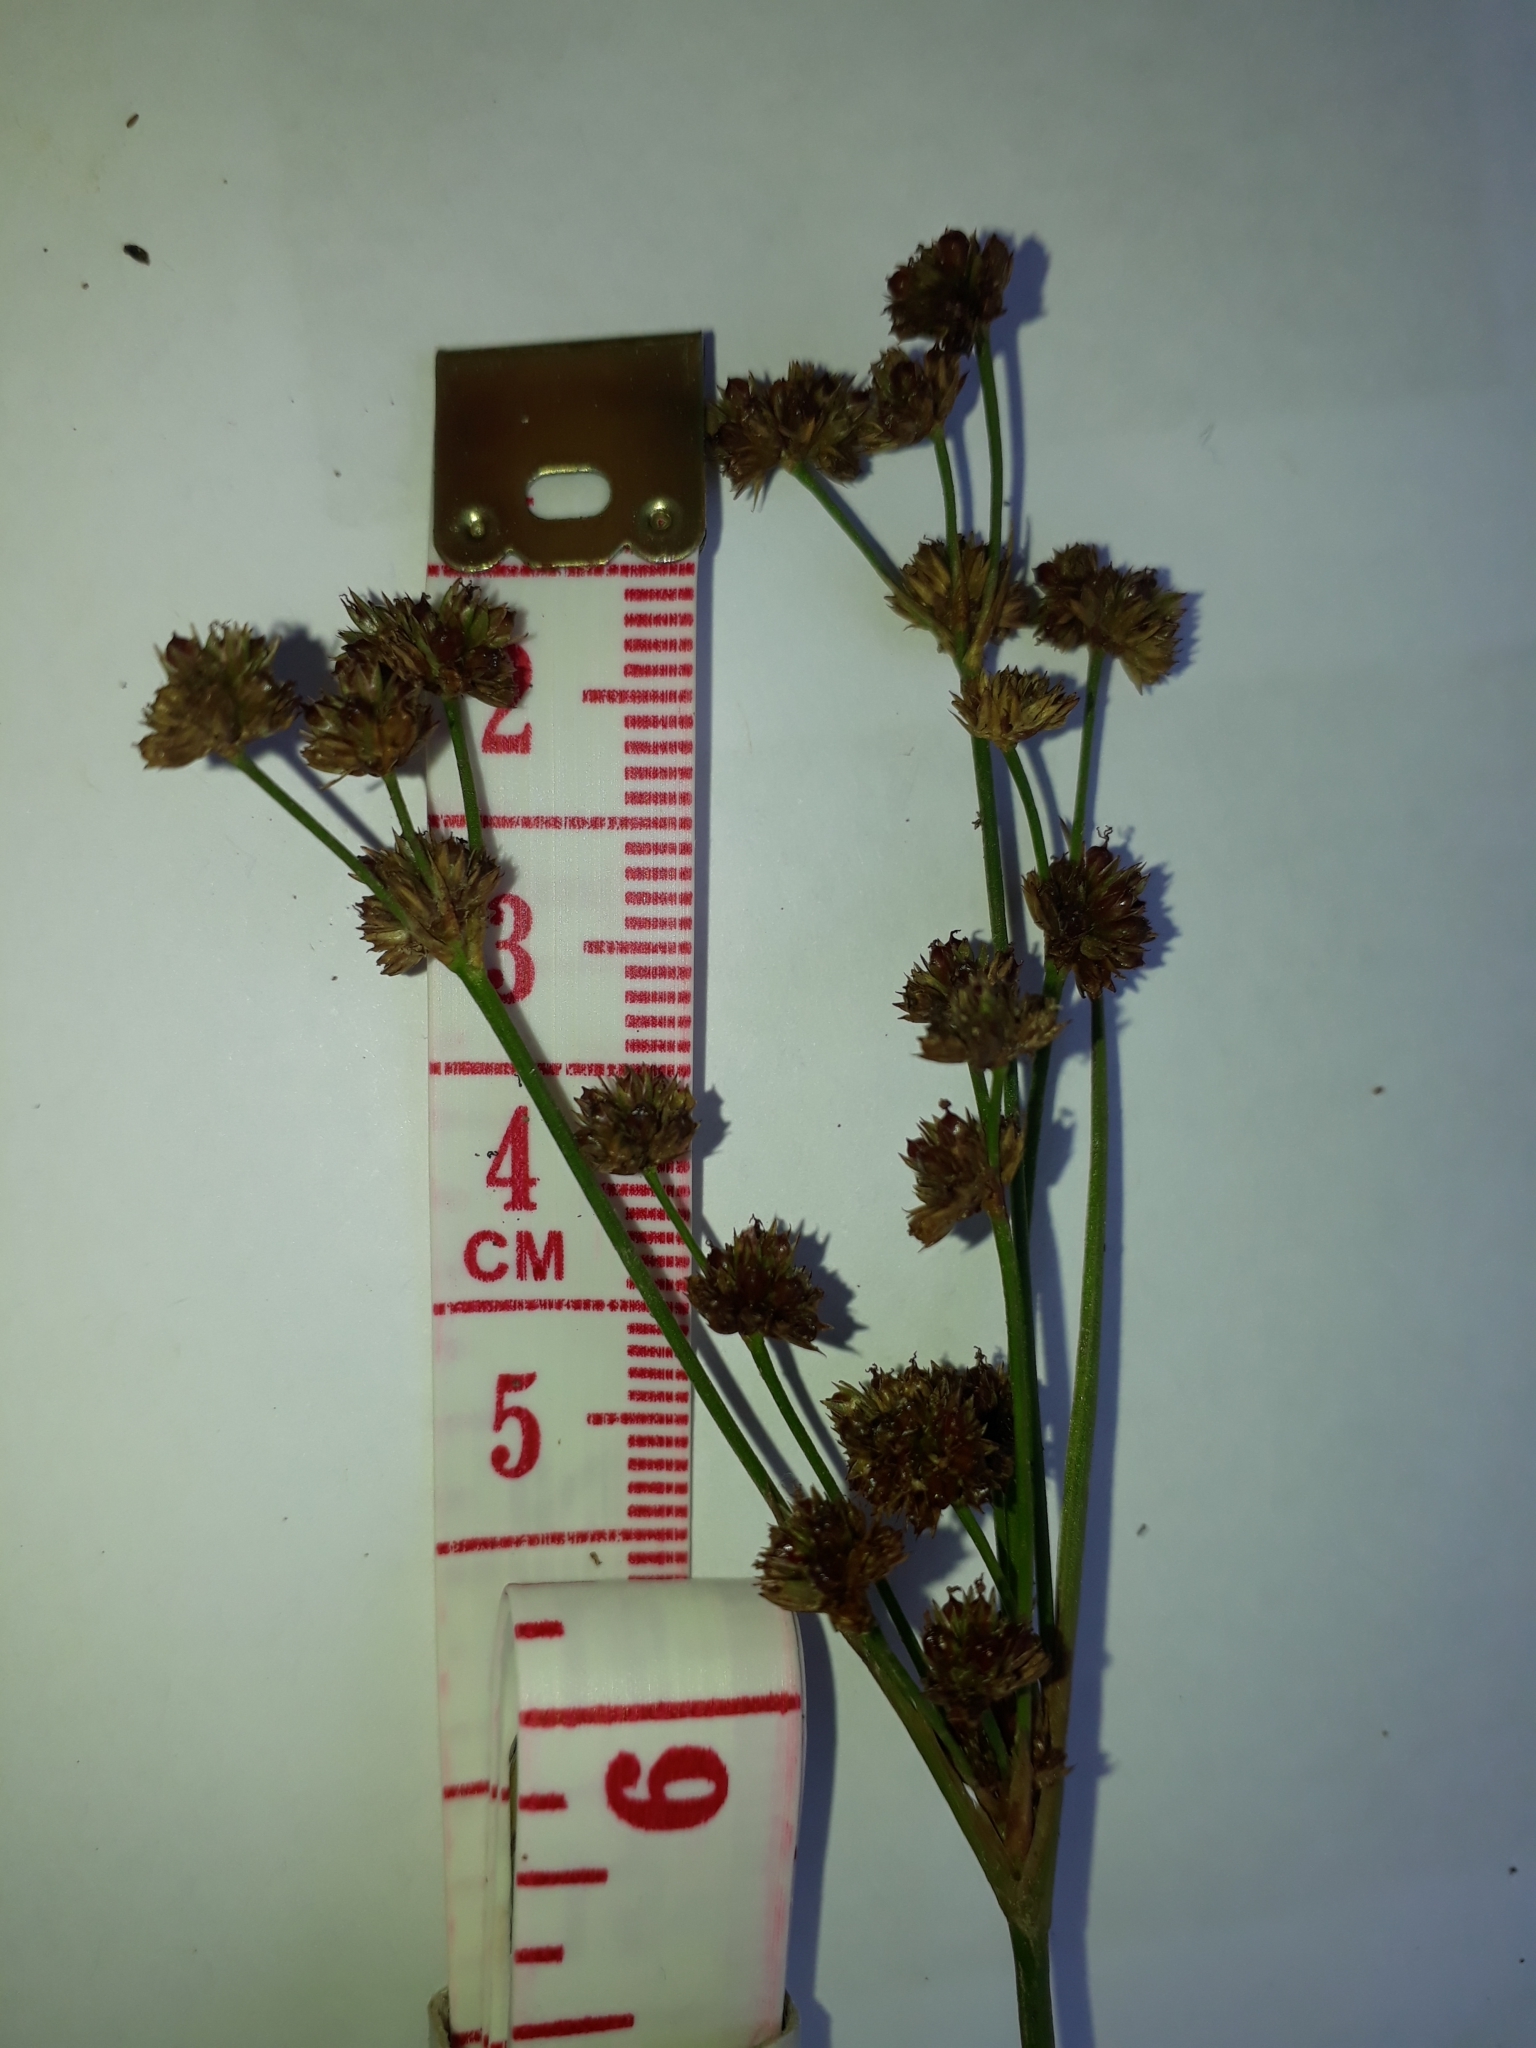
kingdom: Plantae
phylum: Tracheophyta
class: Liliopsida
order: Poales
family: Juncaceae
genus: Juncus
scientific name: Juncus planifolius
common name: Broadleaf rush
